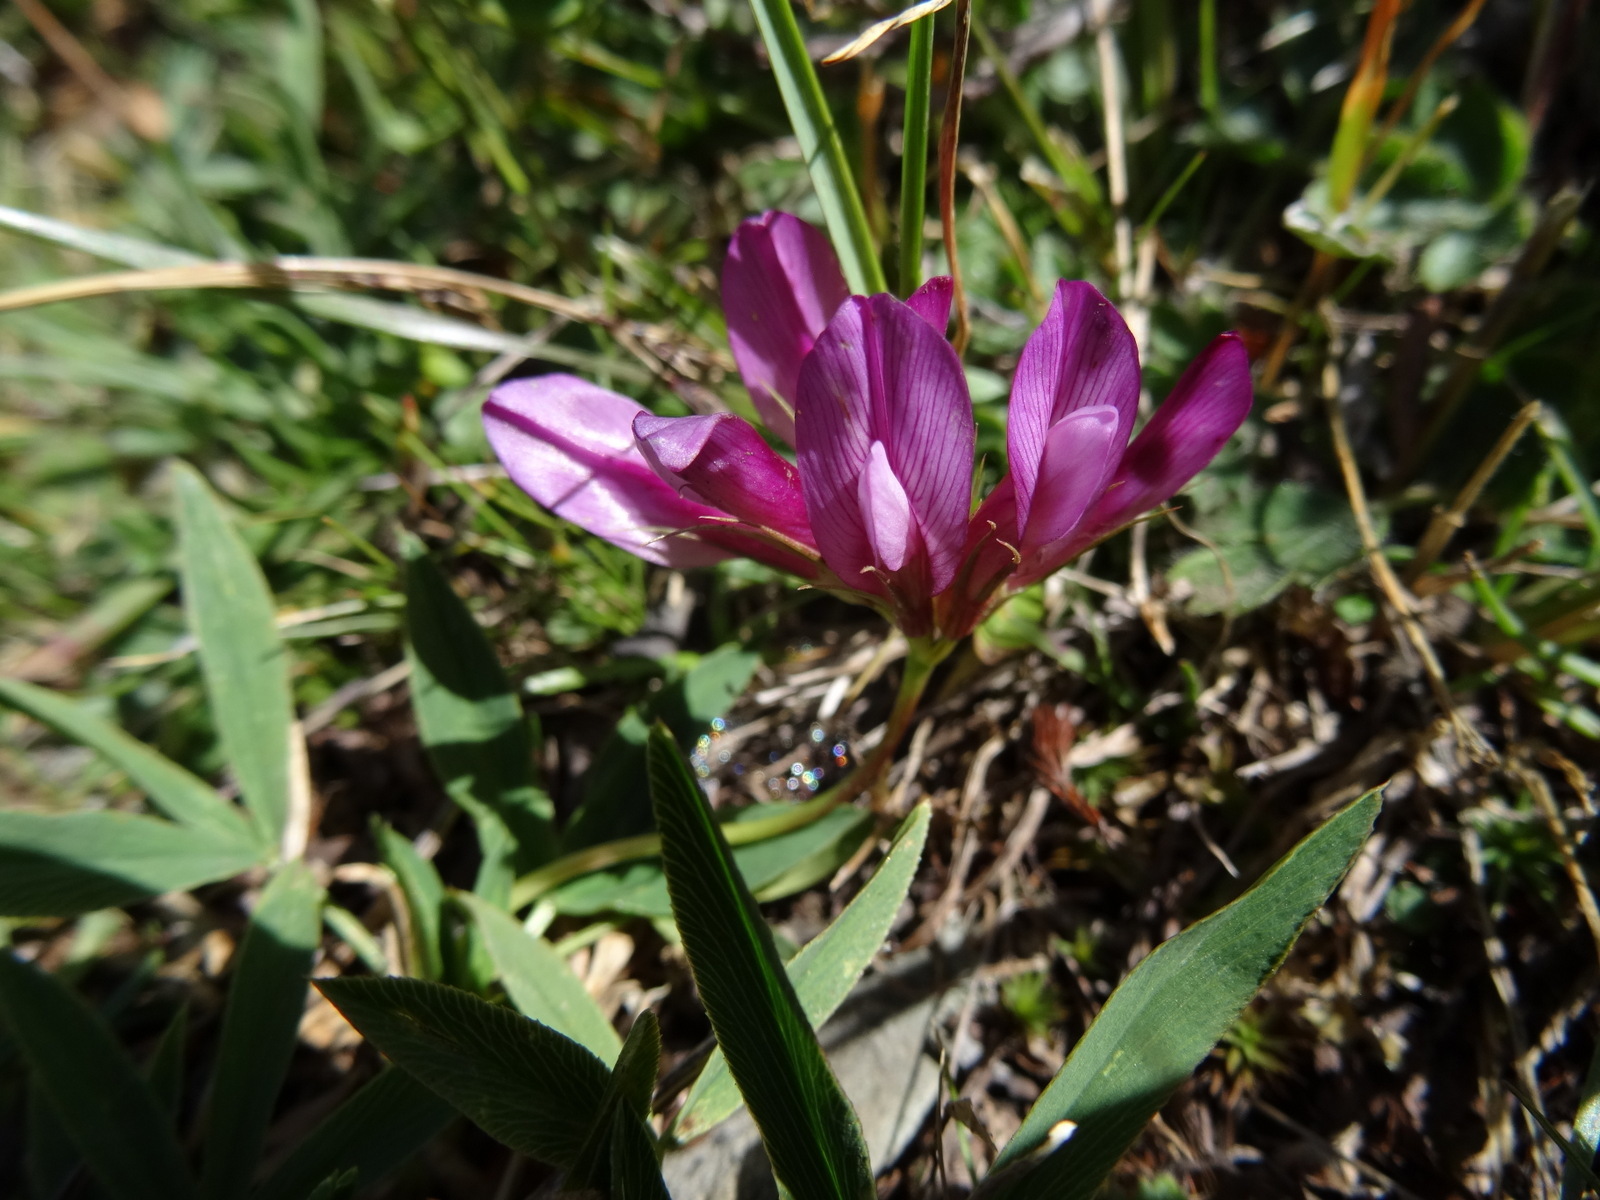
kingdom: Plantae
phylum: Tracheophyta
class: Magnoliopsida
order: Fabales
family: Fabaceae
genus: Trifolium
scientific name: Trifolium alpinum
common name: Alpine clover
